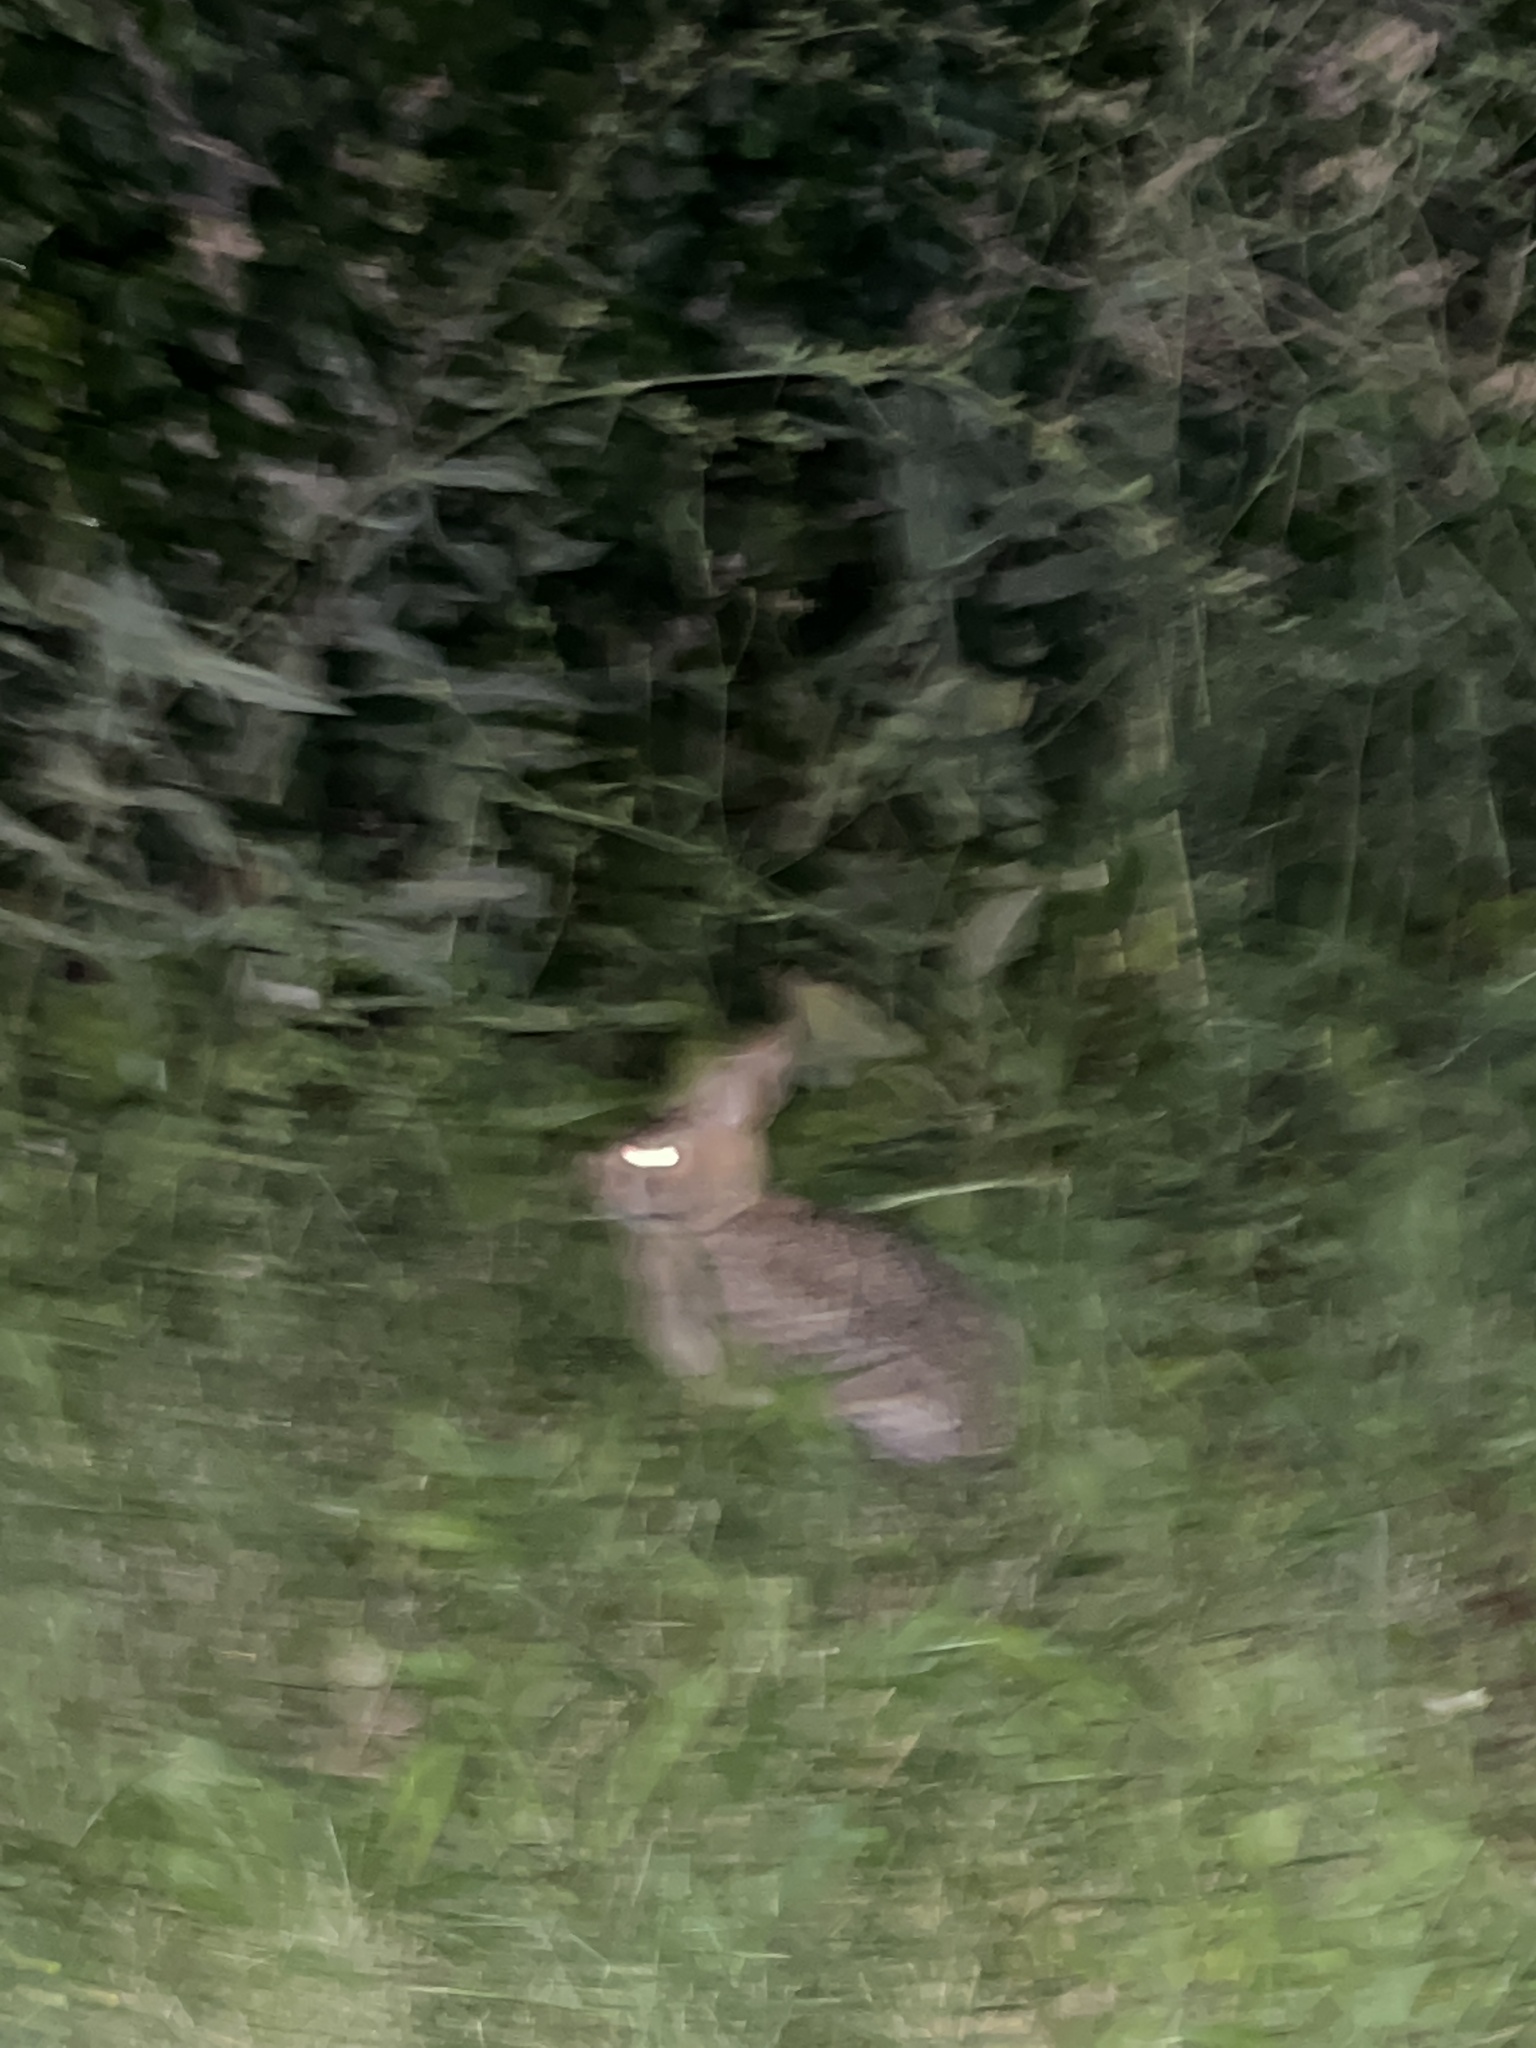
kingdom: Animalia
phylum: Chordata
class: Mammalia
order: Lagomorpha
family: Leporidae
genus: Sylvilagus
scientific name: Sylvilagus floridanus
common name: Eastern cottontail
